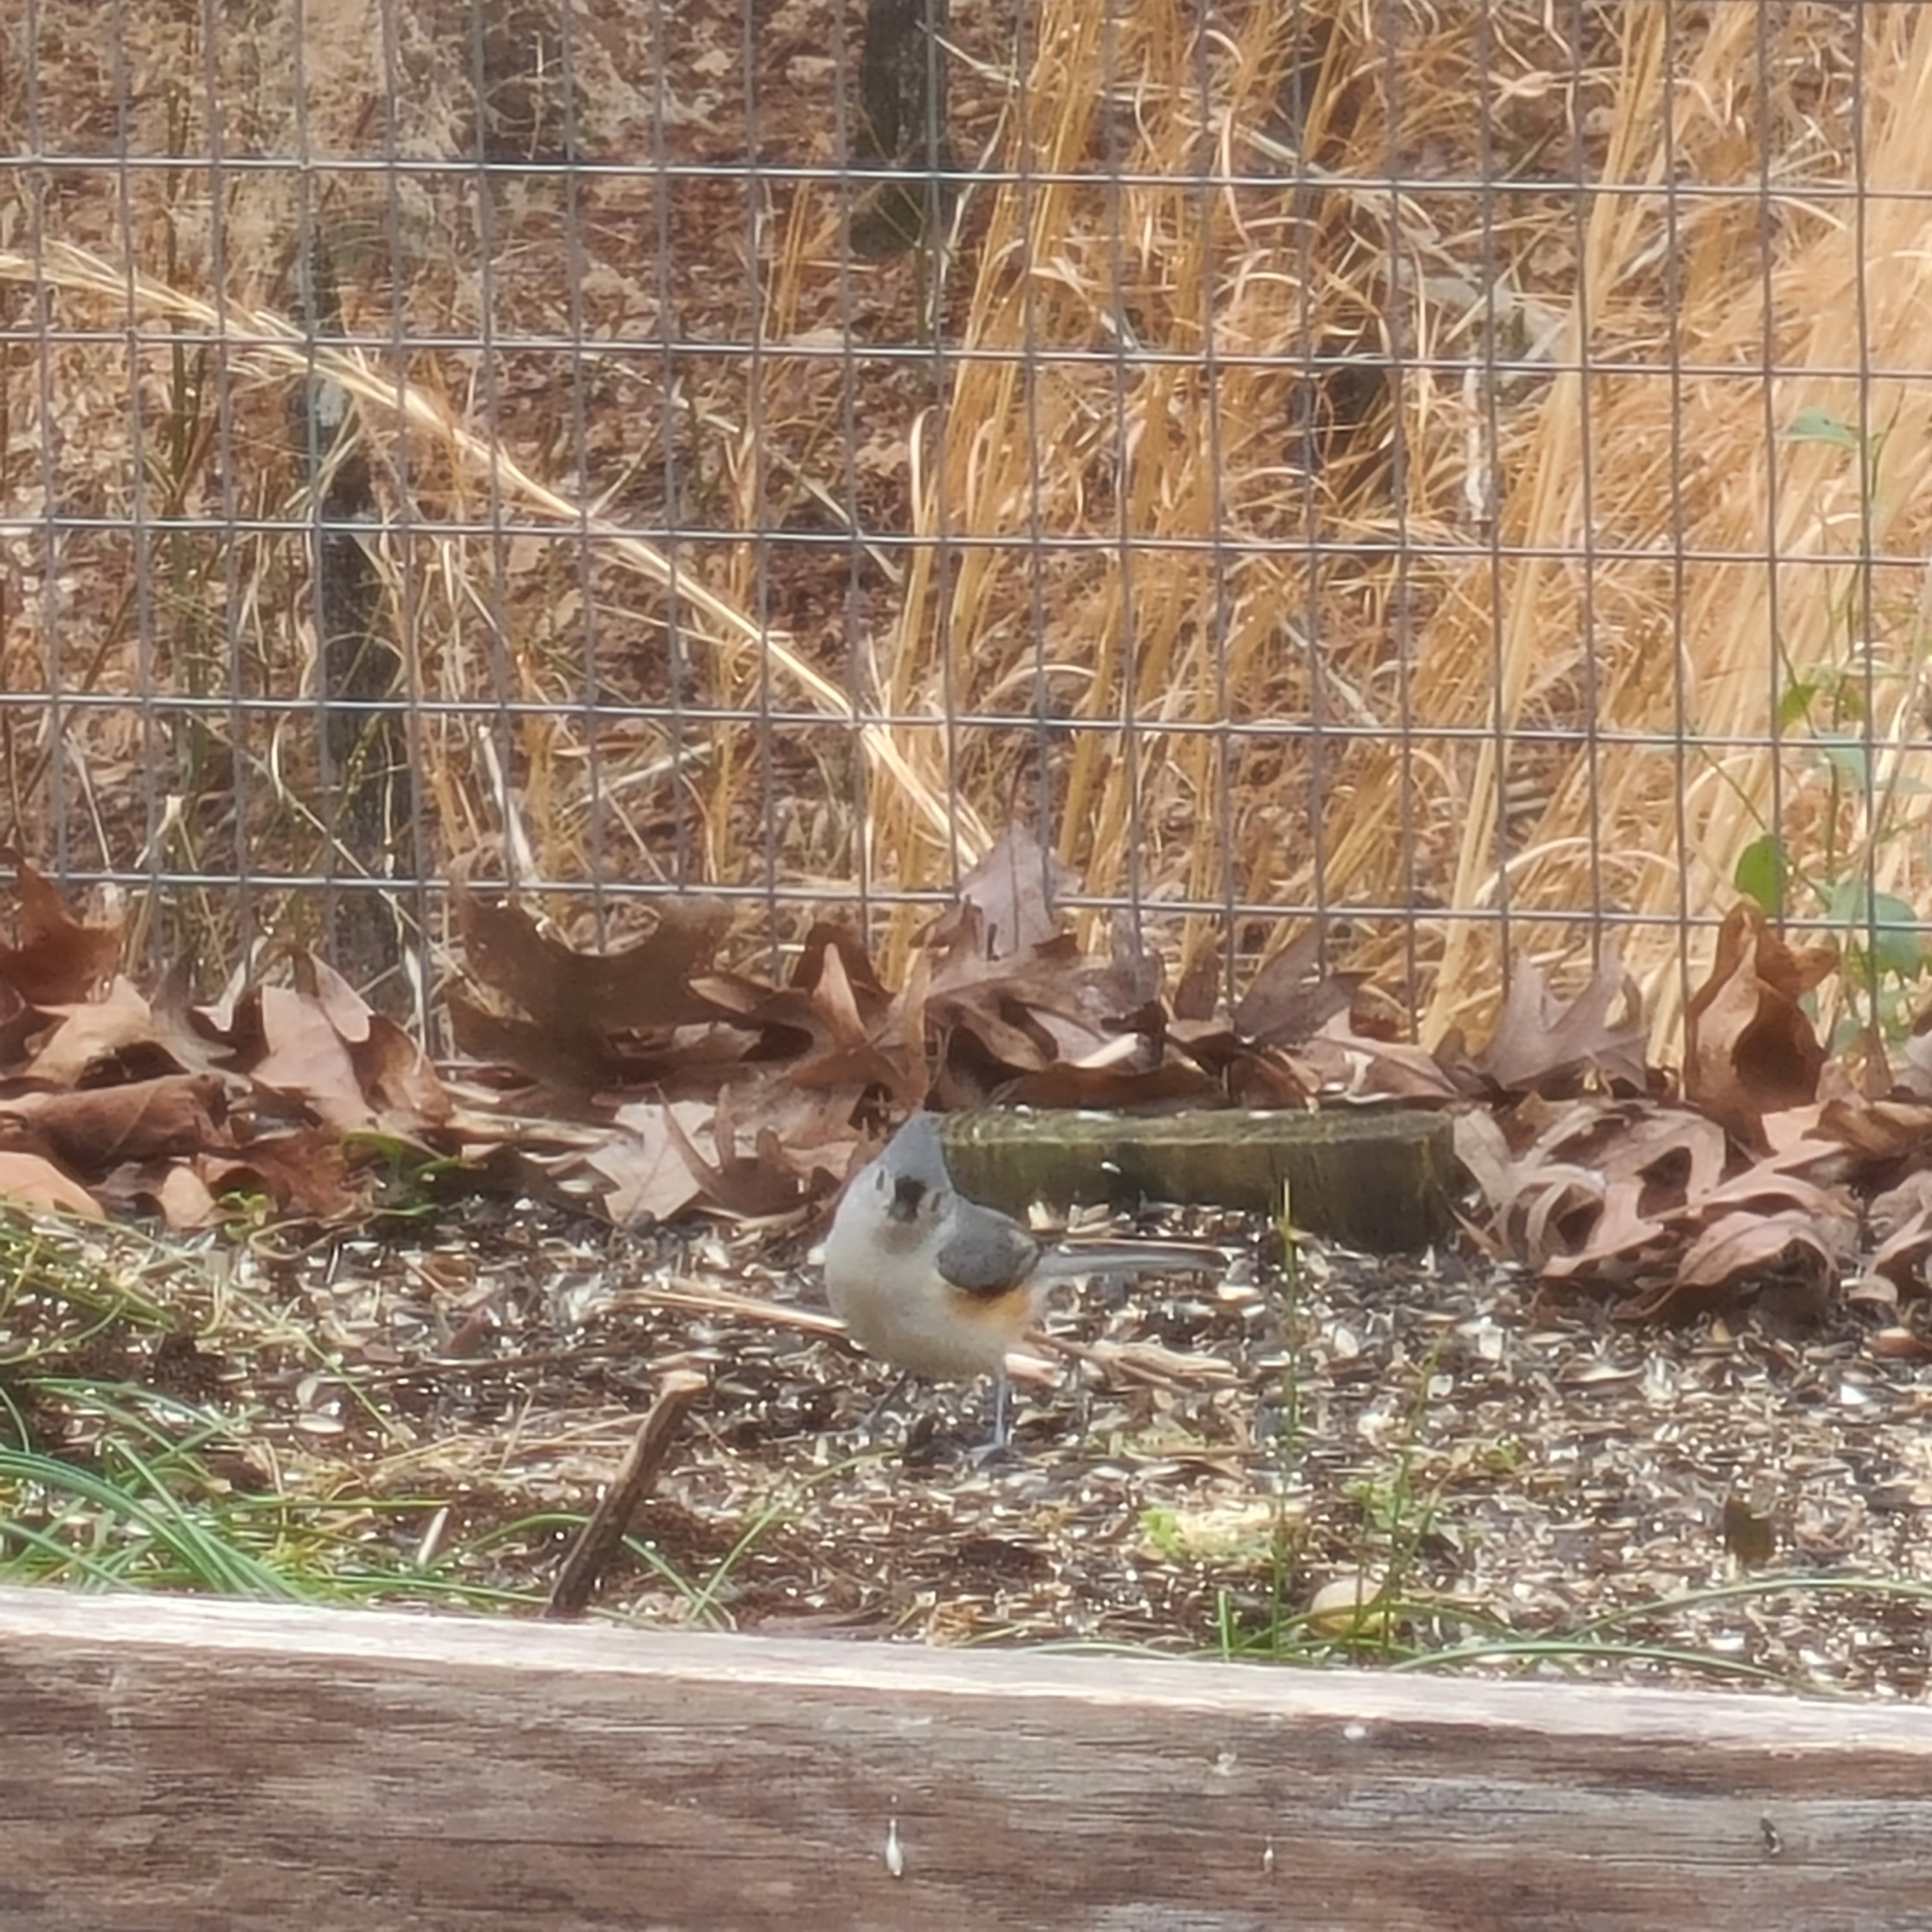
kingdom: Animalia
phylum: Chordata
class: Aves
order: Passeriformes
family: Paridae
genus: Baeolophus
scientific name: Baeolophus bicolor
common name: Tufted titmouse
